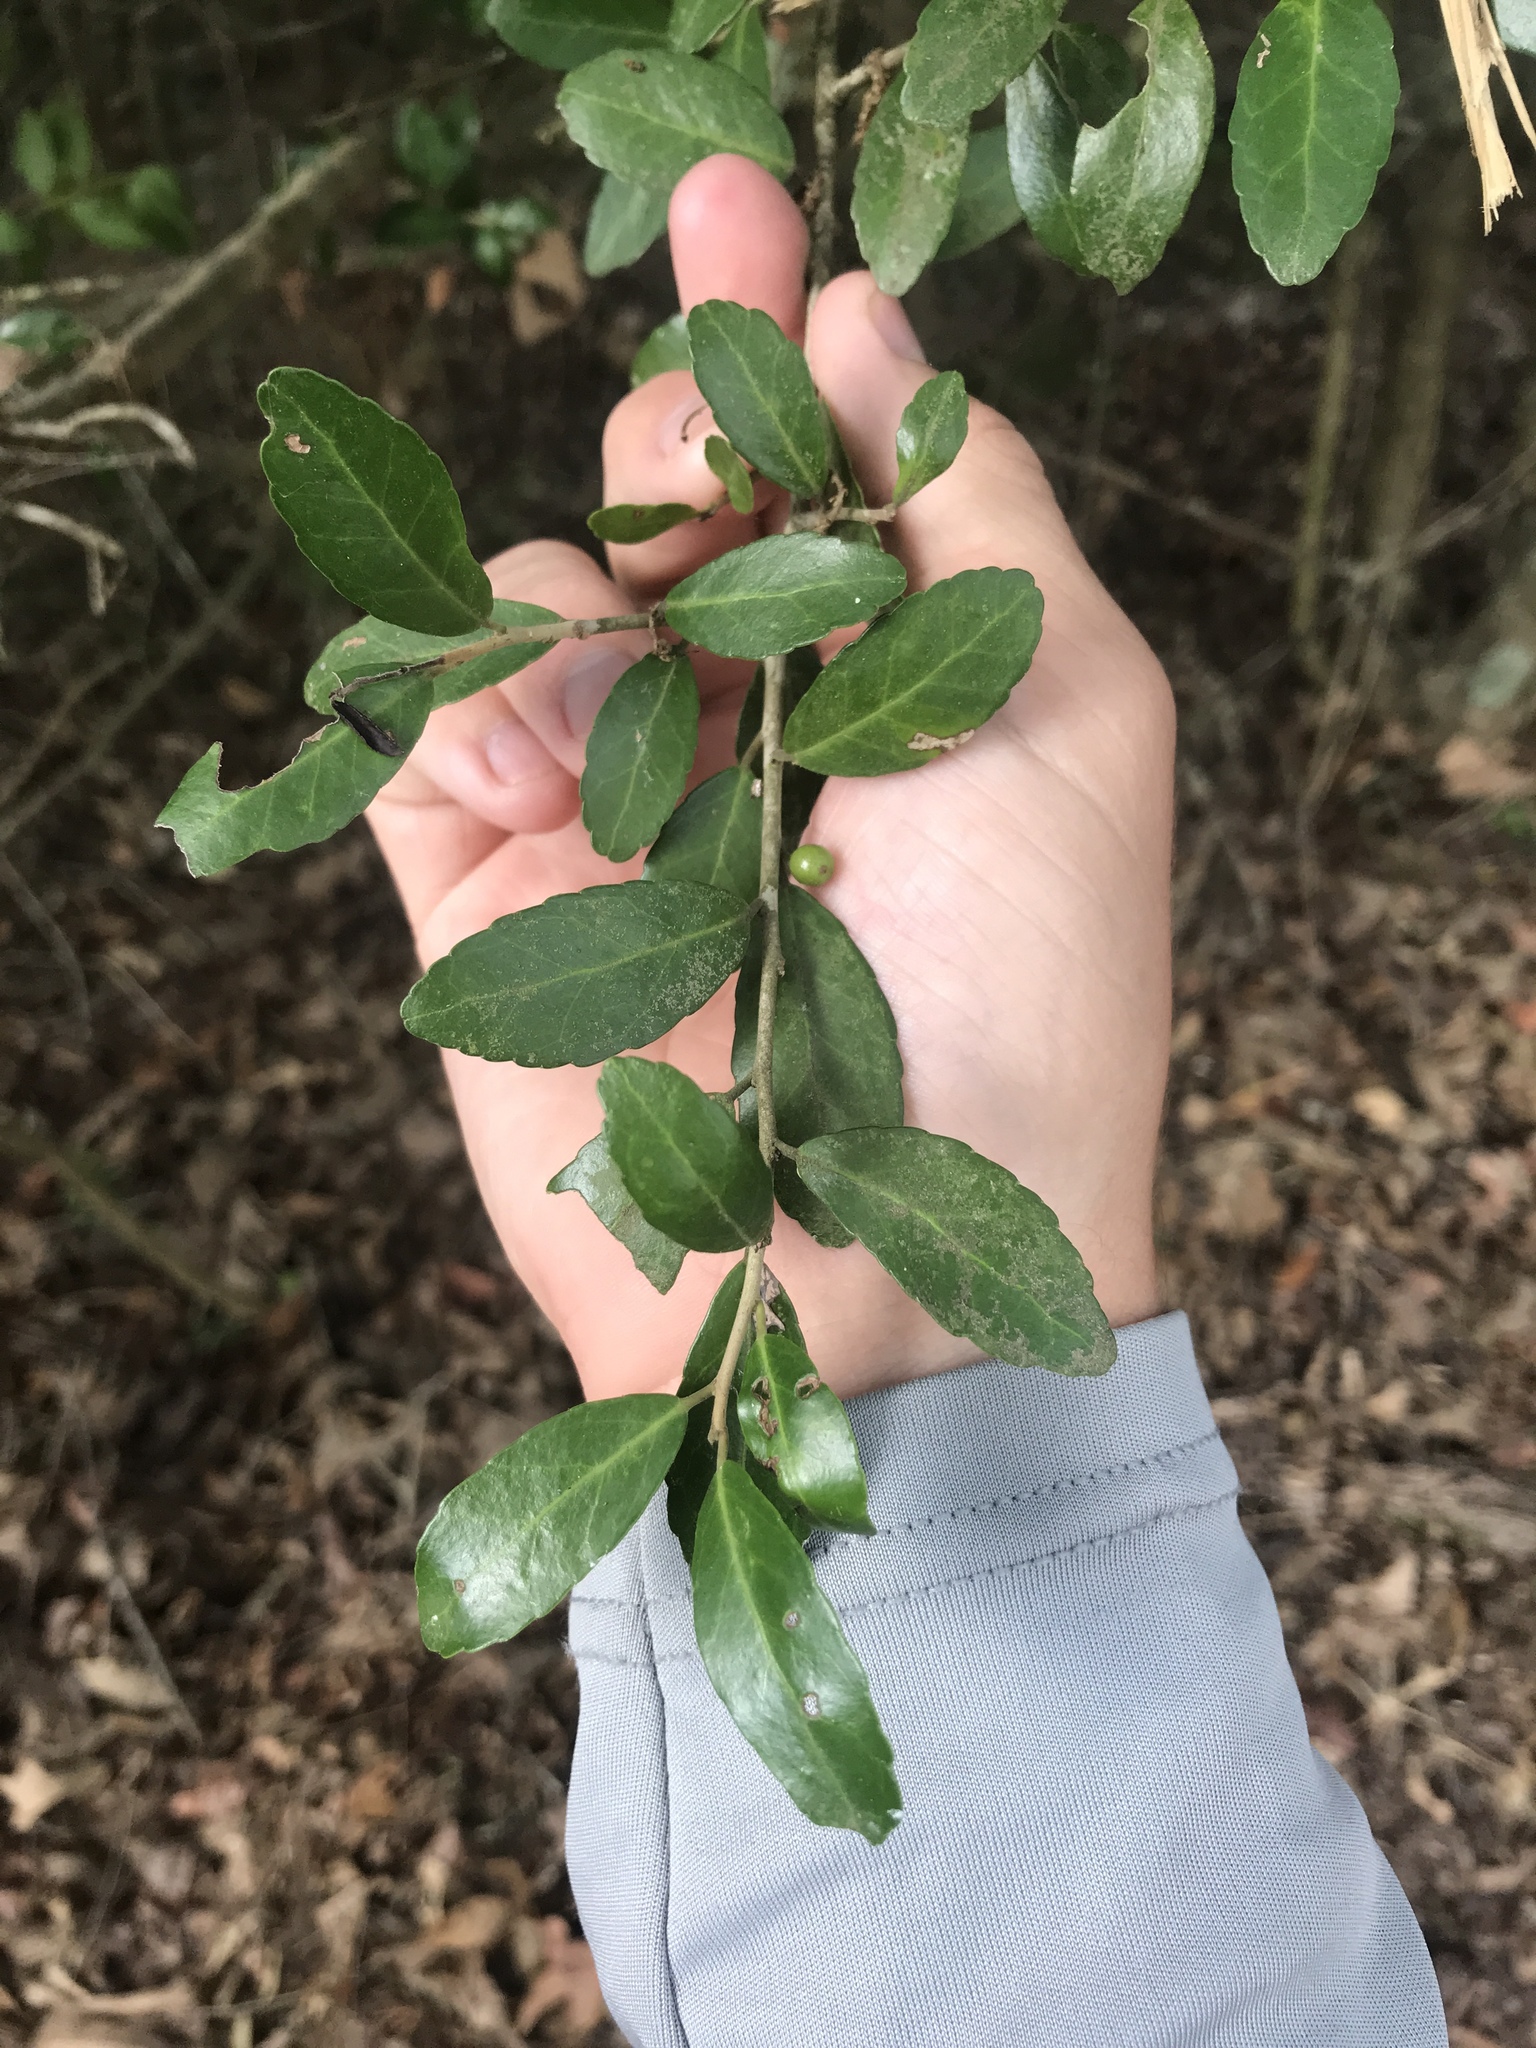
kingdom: Plantae
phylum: Tracheophyta
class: Magnoliopsida
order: Aquifoliales
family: Aquifoliaceae
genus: Ilex
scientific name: Ilex vomitoria
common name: Yaupon holly
